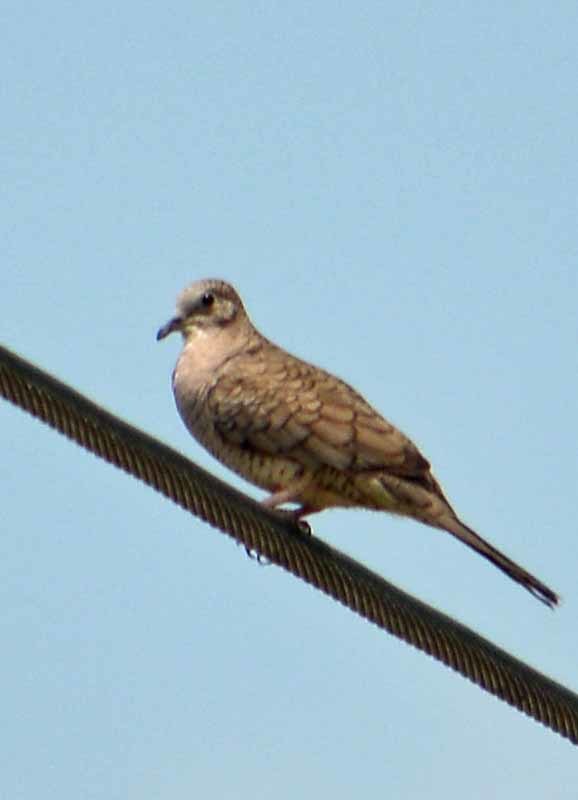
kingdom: Animalia
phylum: Chordata
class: Aves
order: Columbiformes
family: Columbidae
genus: Columbina
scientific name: Columbina inca
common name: Inca dove
